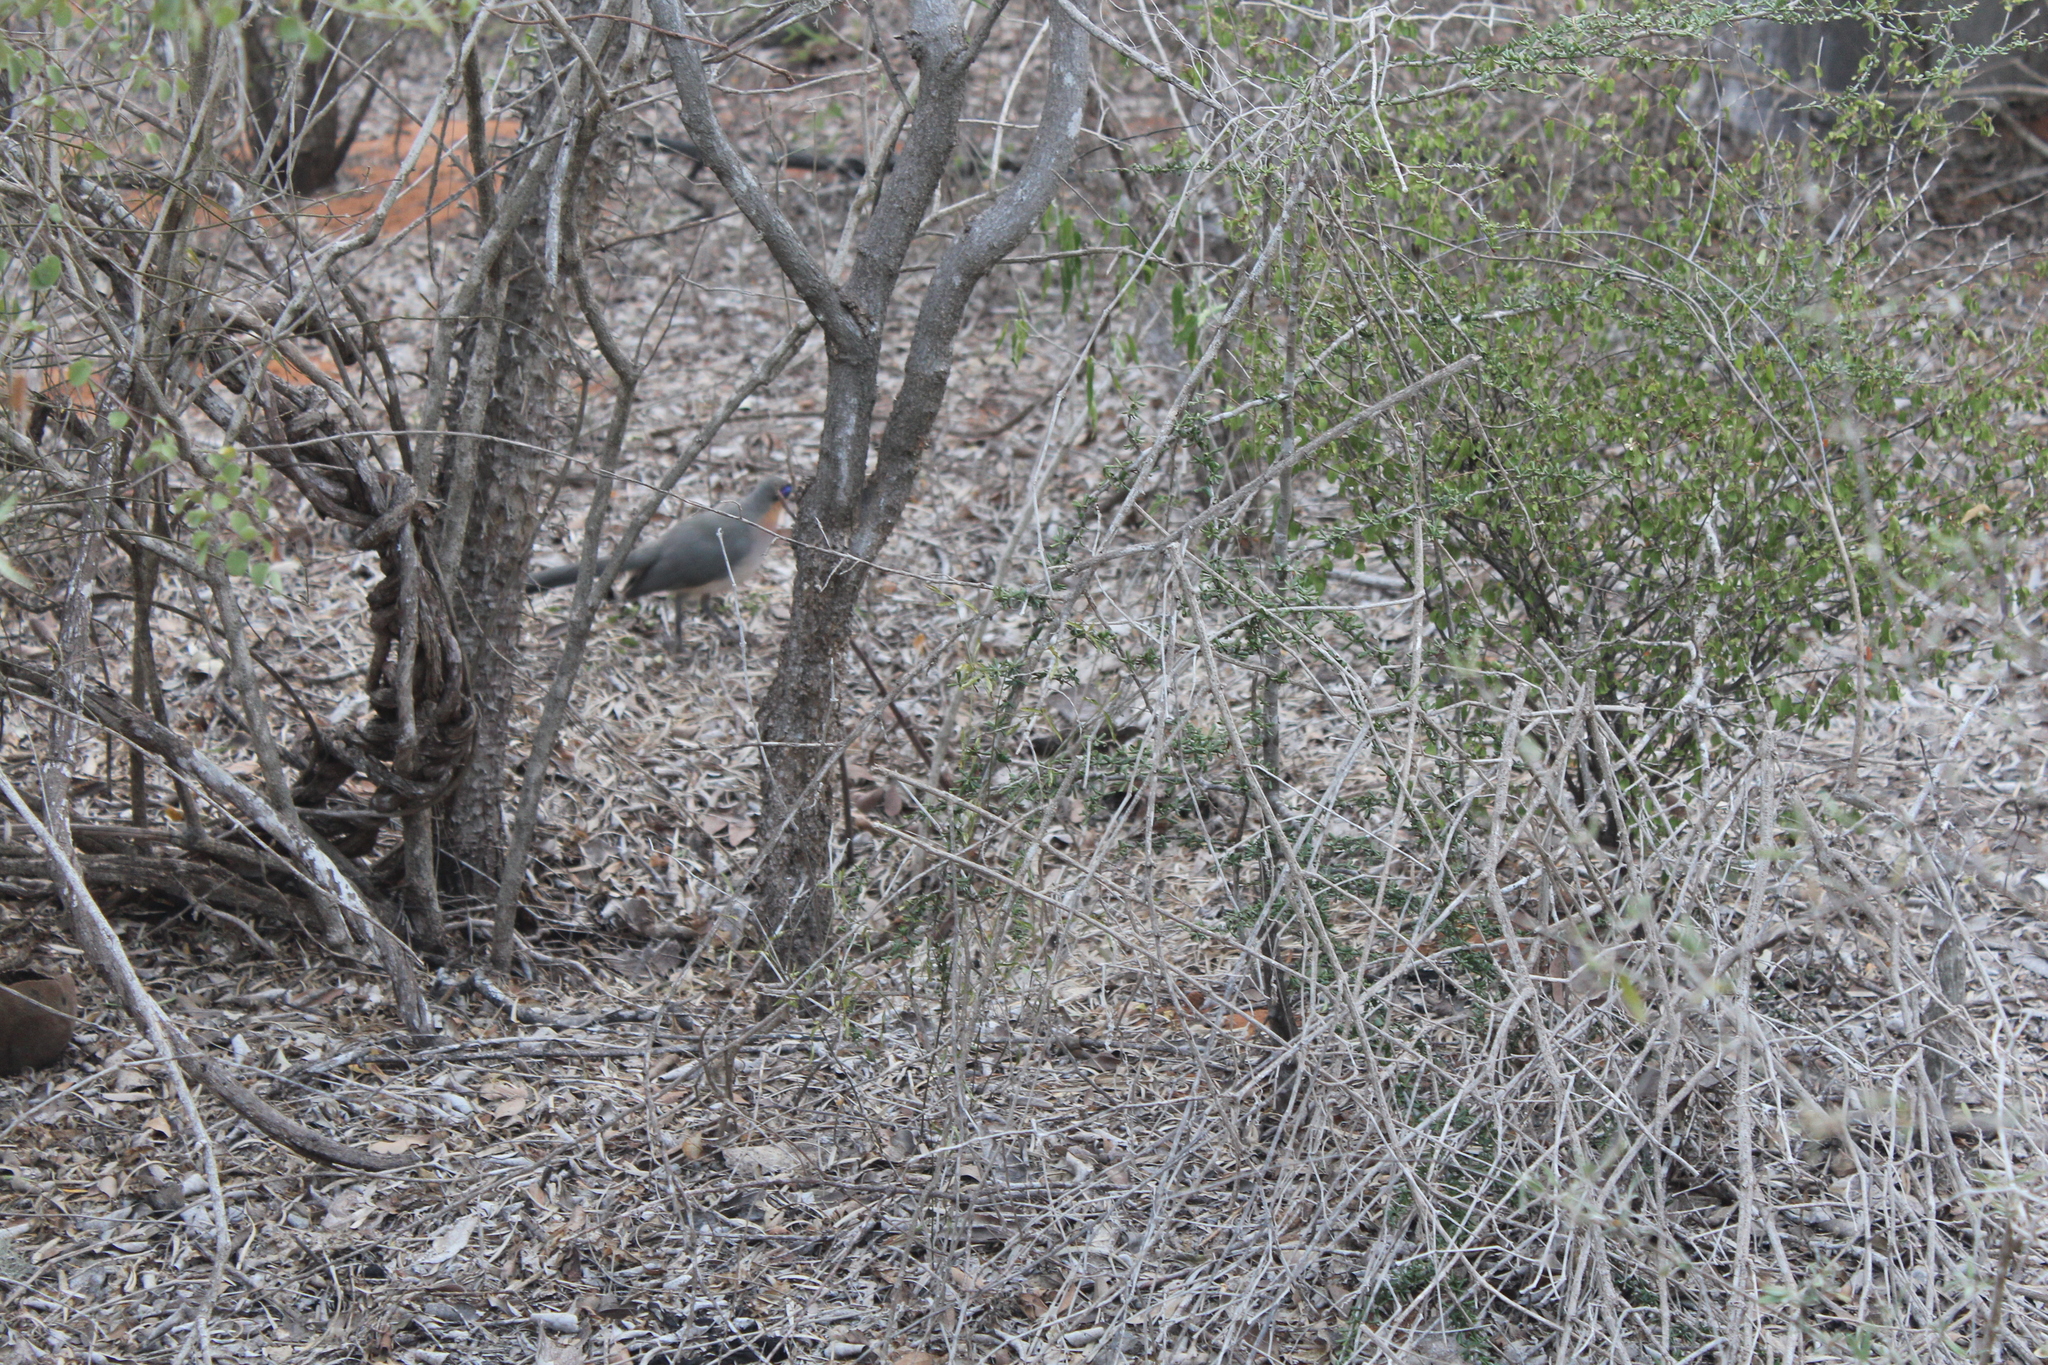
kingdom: Animalia
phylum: Chordata
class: Aves
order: Cuculiformes
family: Cuculidae
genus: Coua
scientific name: Coua cursor
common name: Running coua
